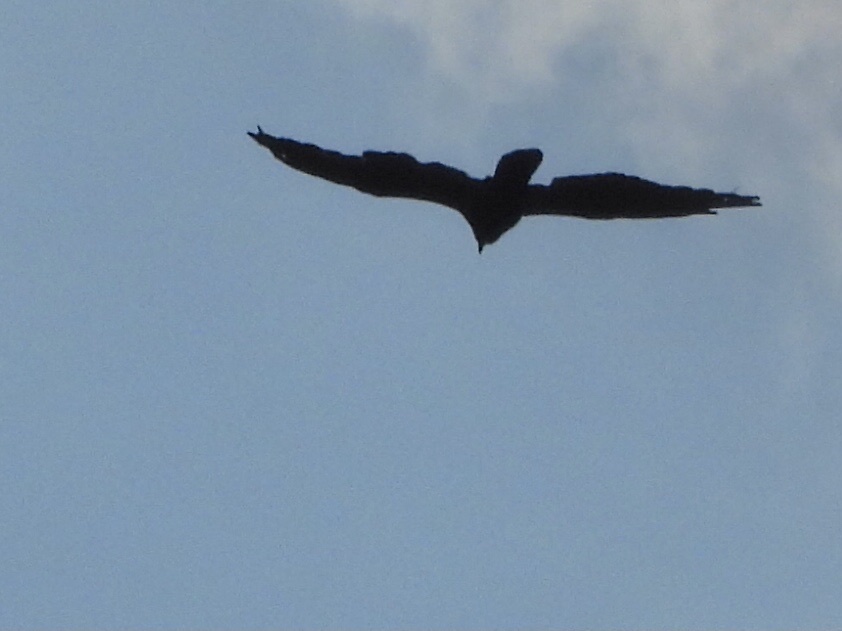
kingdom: Animalia
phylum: Chordata
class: Aves
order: Accipitriformes
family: Cathartidae
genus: Cathartes
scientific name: Cathartes aura
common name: Turkey vulture
